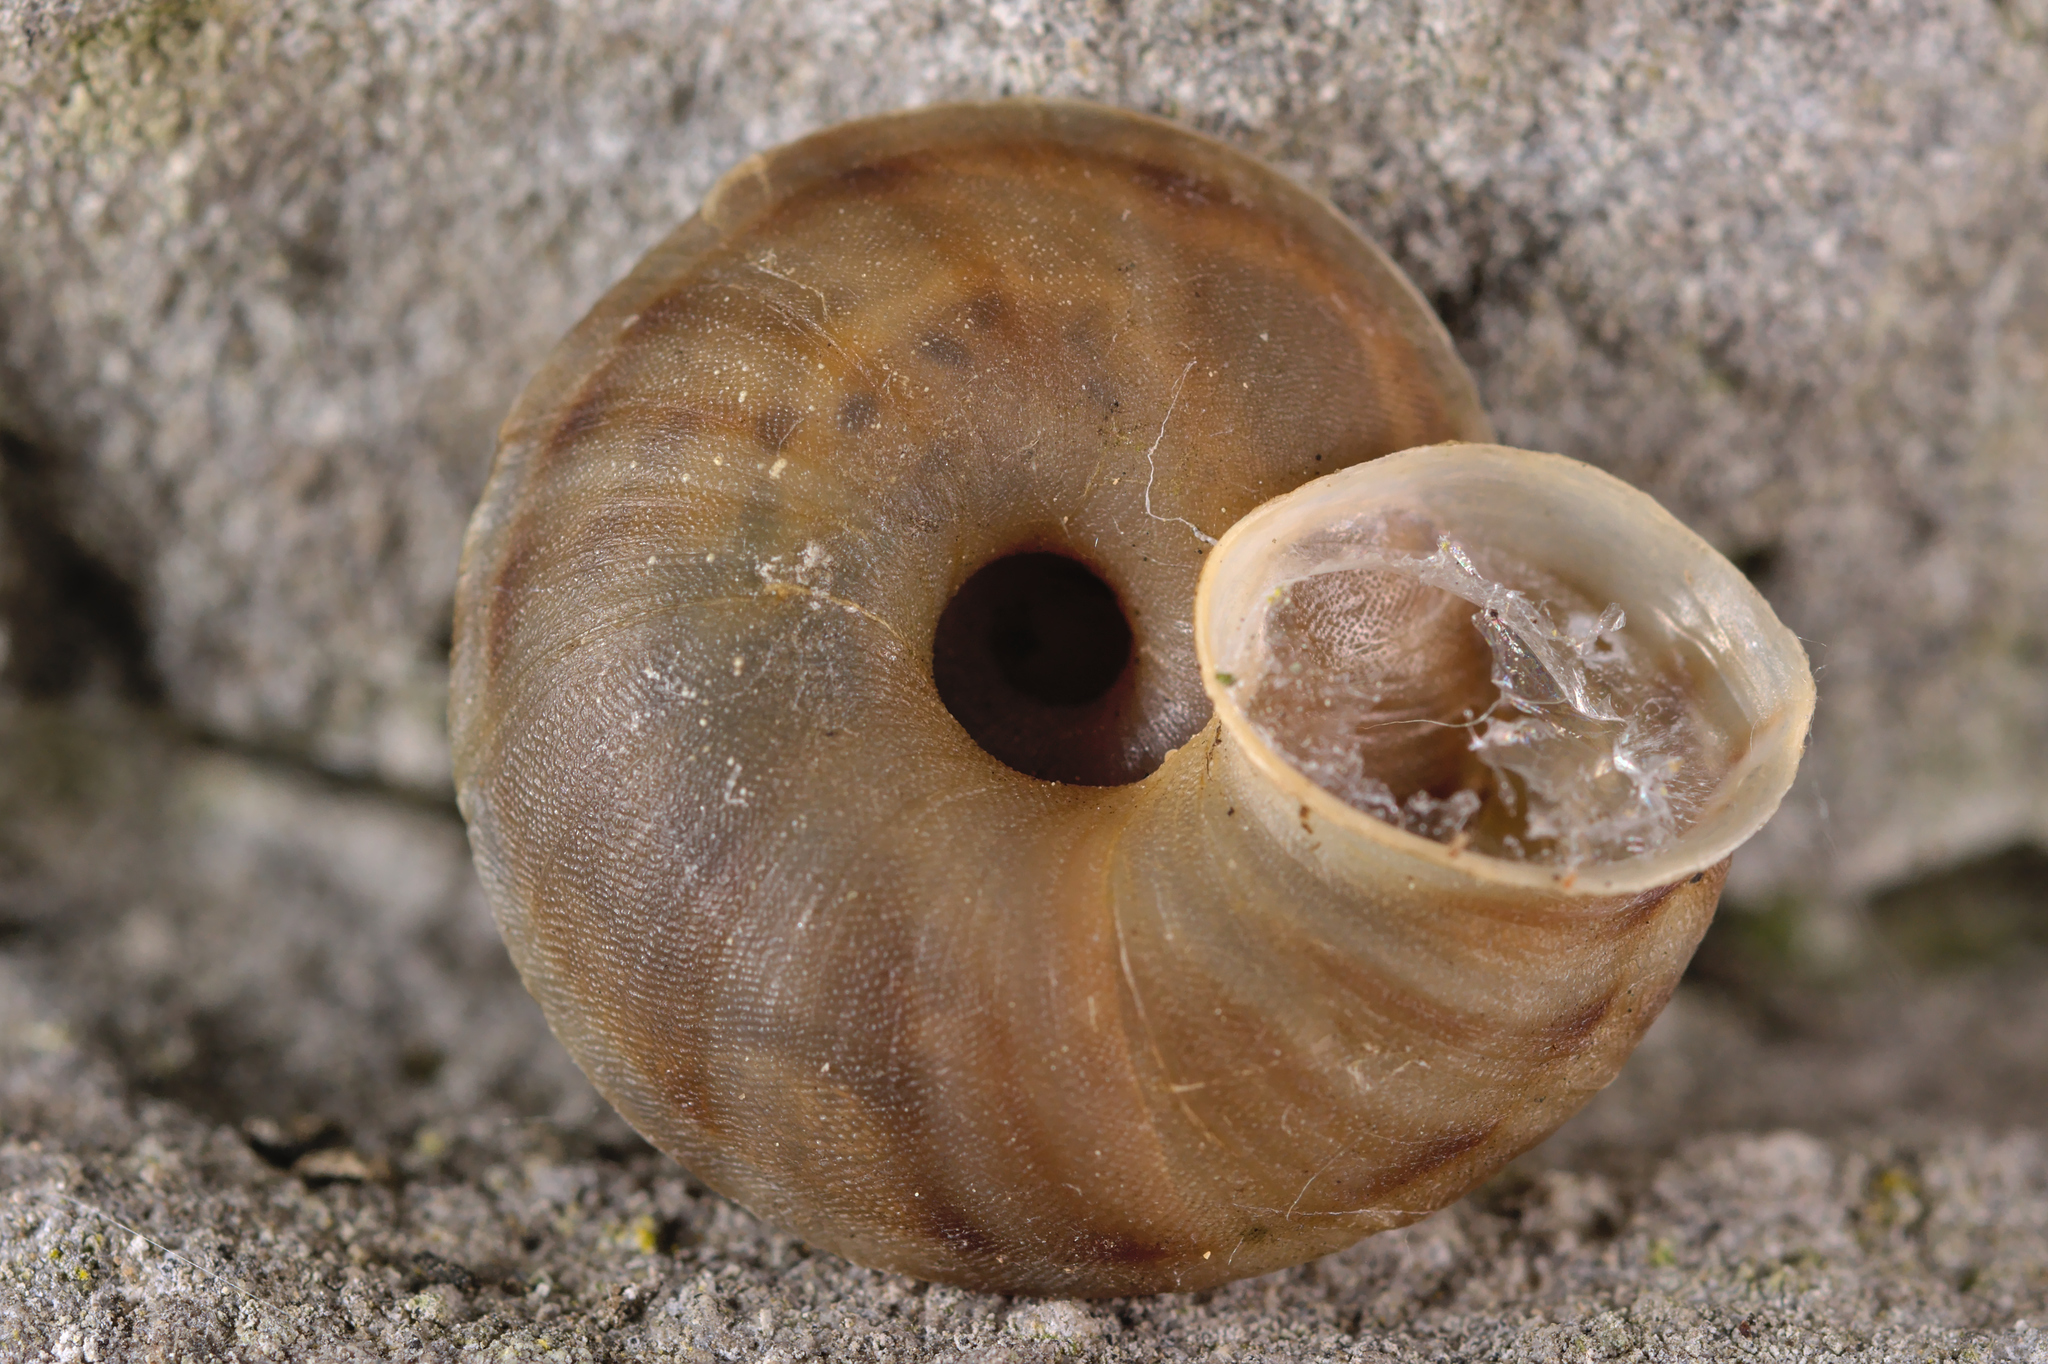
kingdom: Animalia
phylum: Mollusca
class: Gastropoda
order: Stylommatophora
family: Helicidae
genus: Helicigona
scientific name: Helicigona lapicida
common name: Lapidary snail
